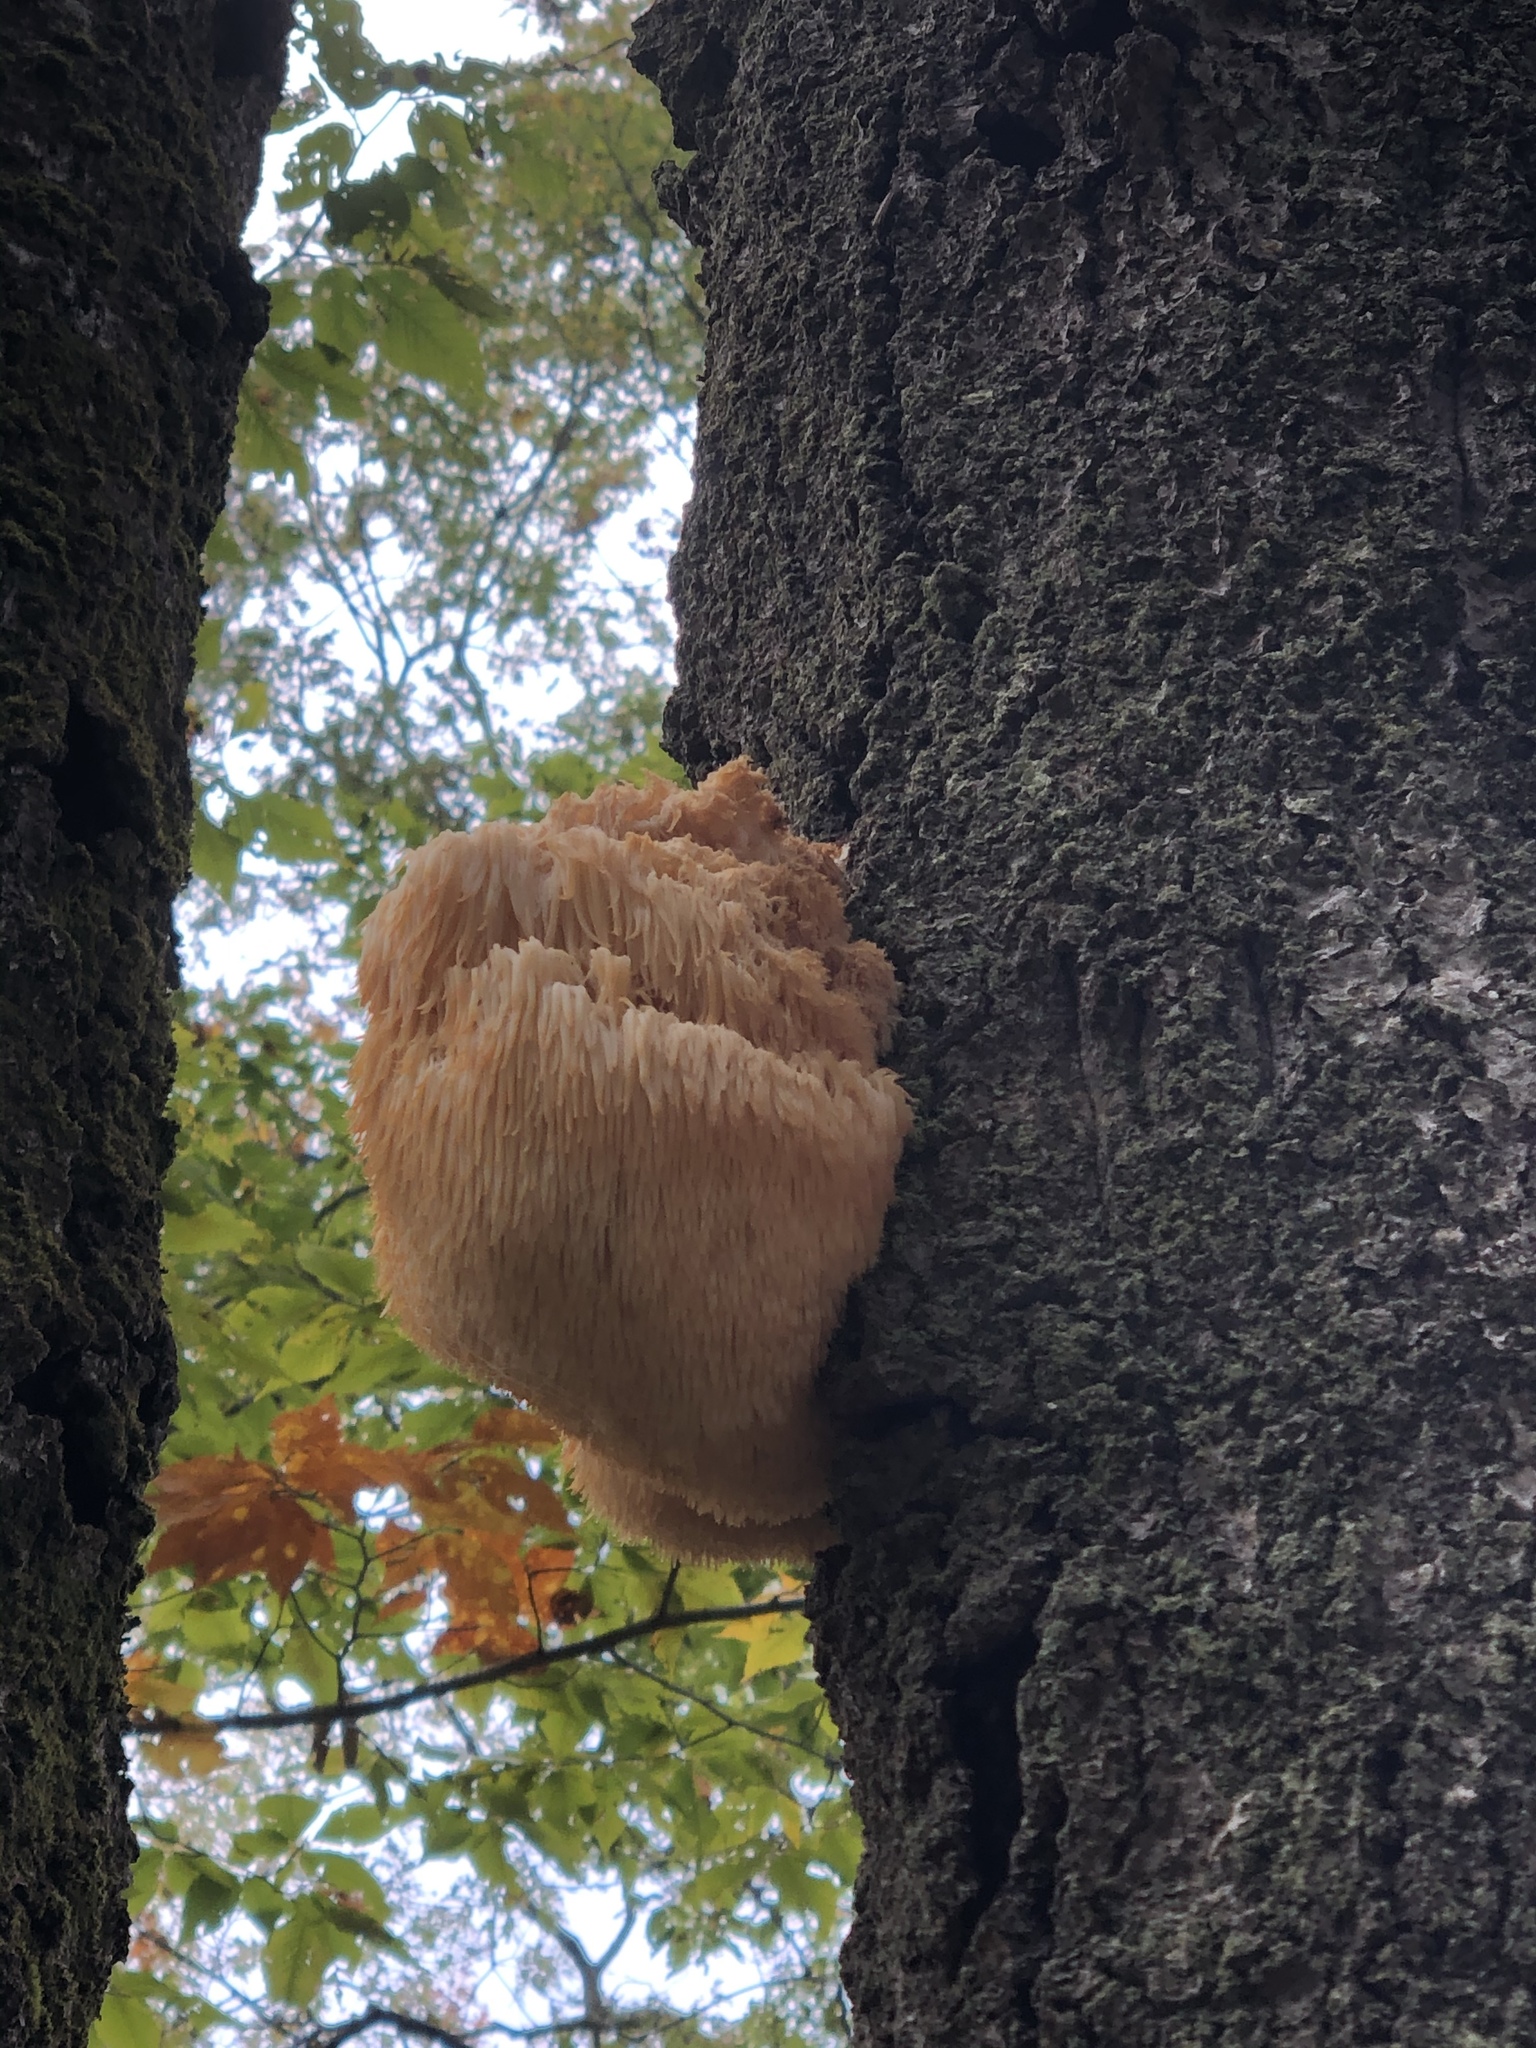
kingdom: Fungi
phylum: Basidiomycota
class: Agaricomycetes
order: Russulales
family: Hericiaceae
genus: Hericium
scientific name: Hericium erinaceus
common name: Bearded tooth
